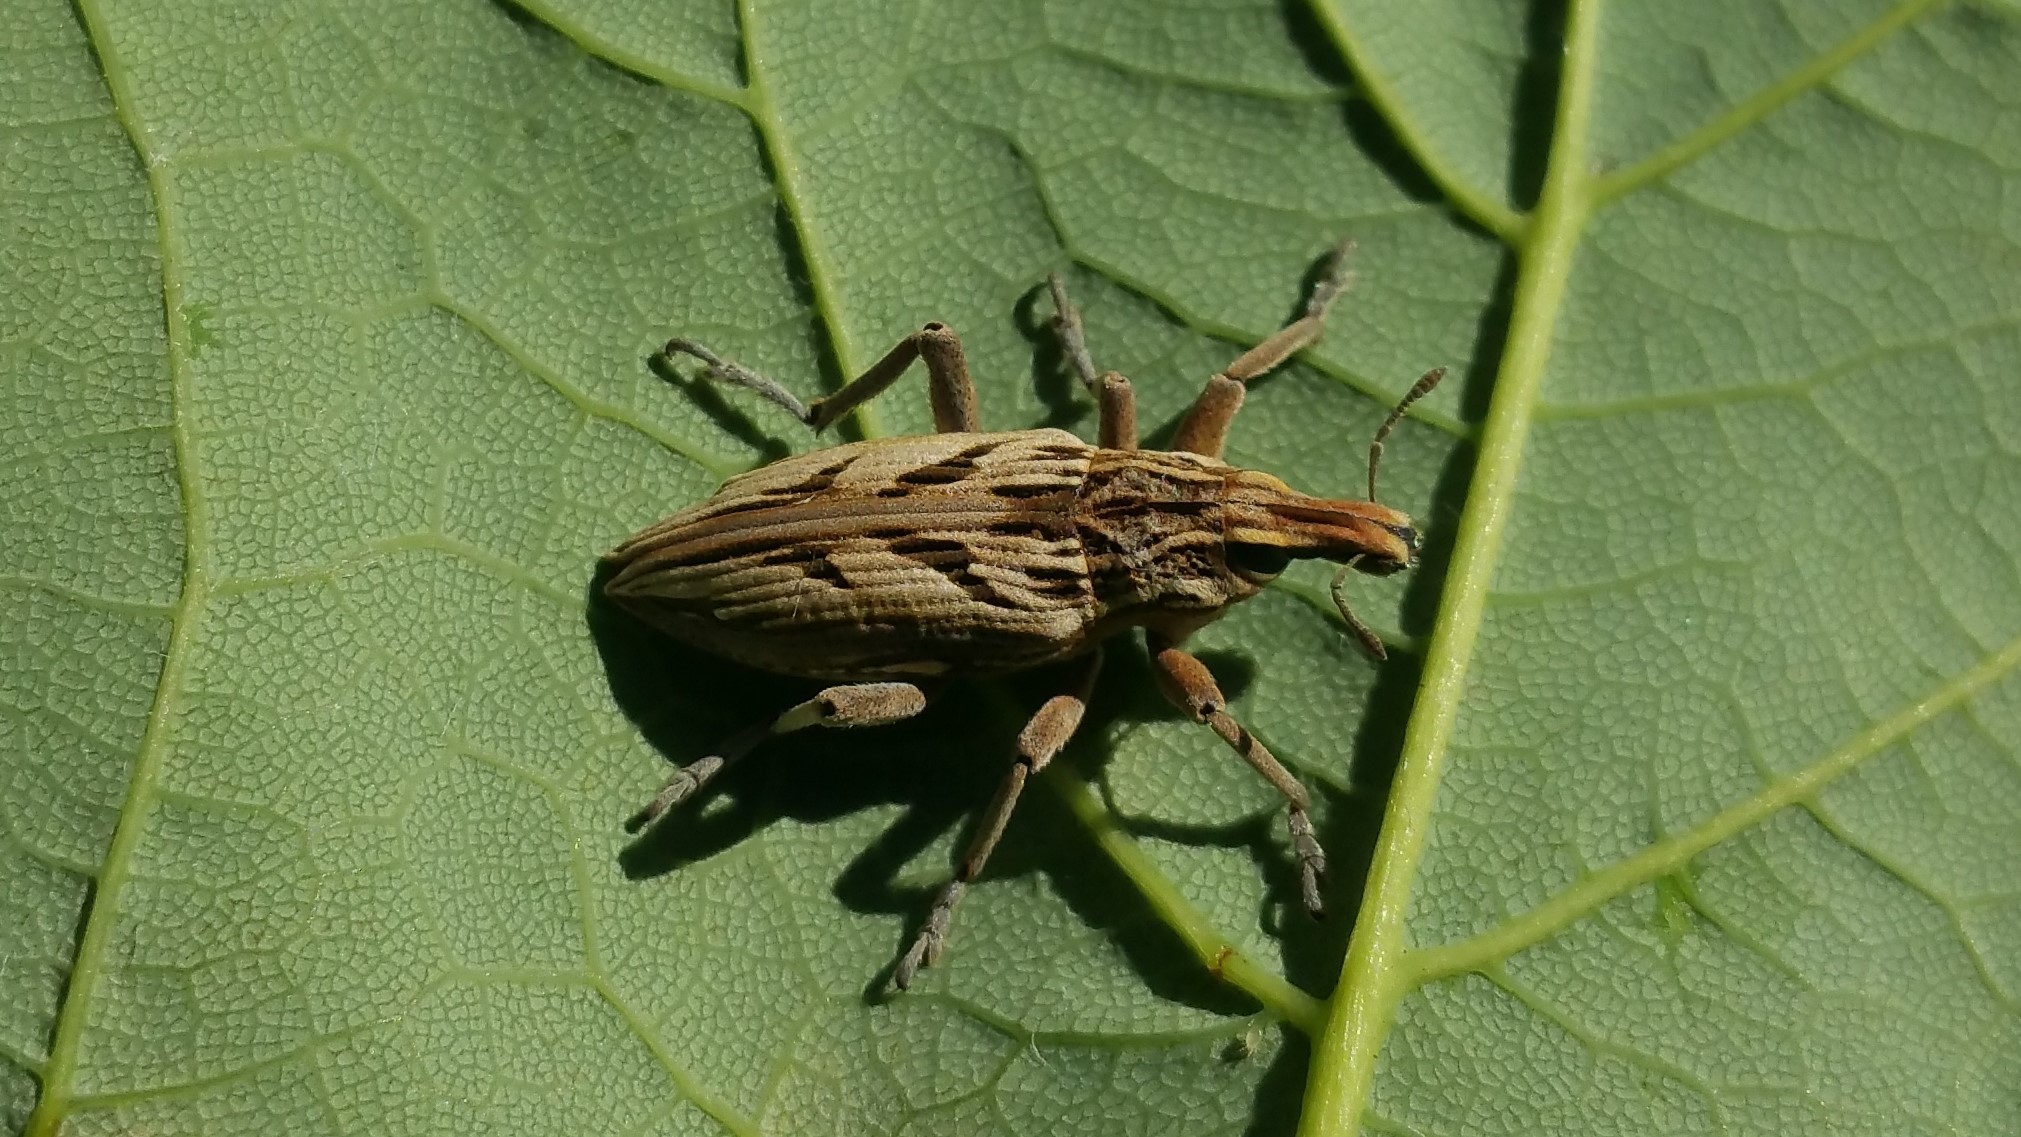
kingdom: Animalia
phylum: Arthropoda
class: Insecta
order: Coleoptera
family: Curculionidae
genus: Coniocleonus
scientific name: Coniocleonus nigrosuturatus
